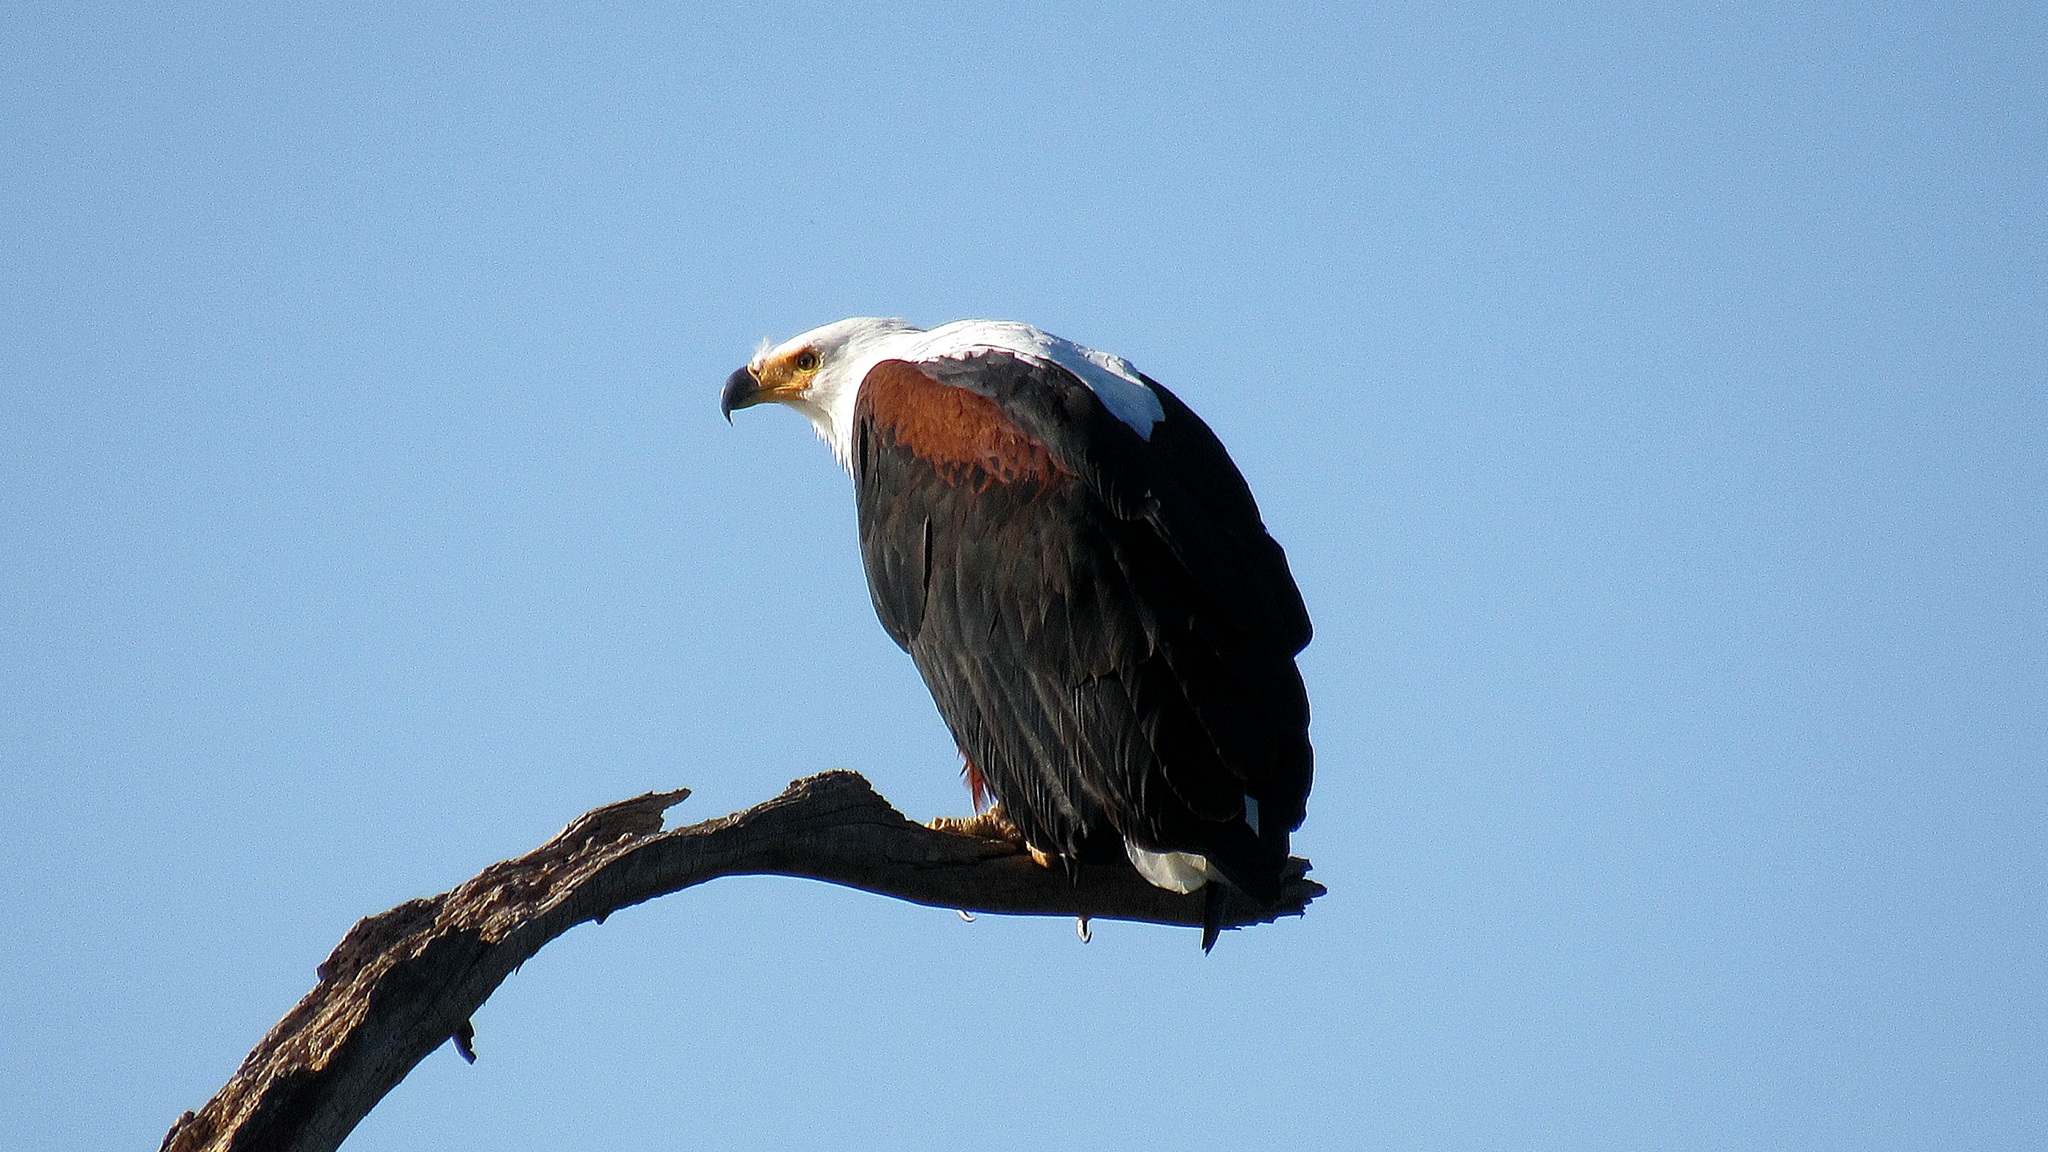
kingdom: Animalia
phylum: Chordata
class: Aves
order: Accipitriformes
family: Accipitridae
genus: Haliaeetus
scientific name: Haliaeetus vocifer
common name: African fish eagle
